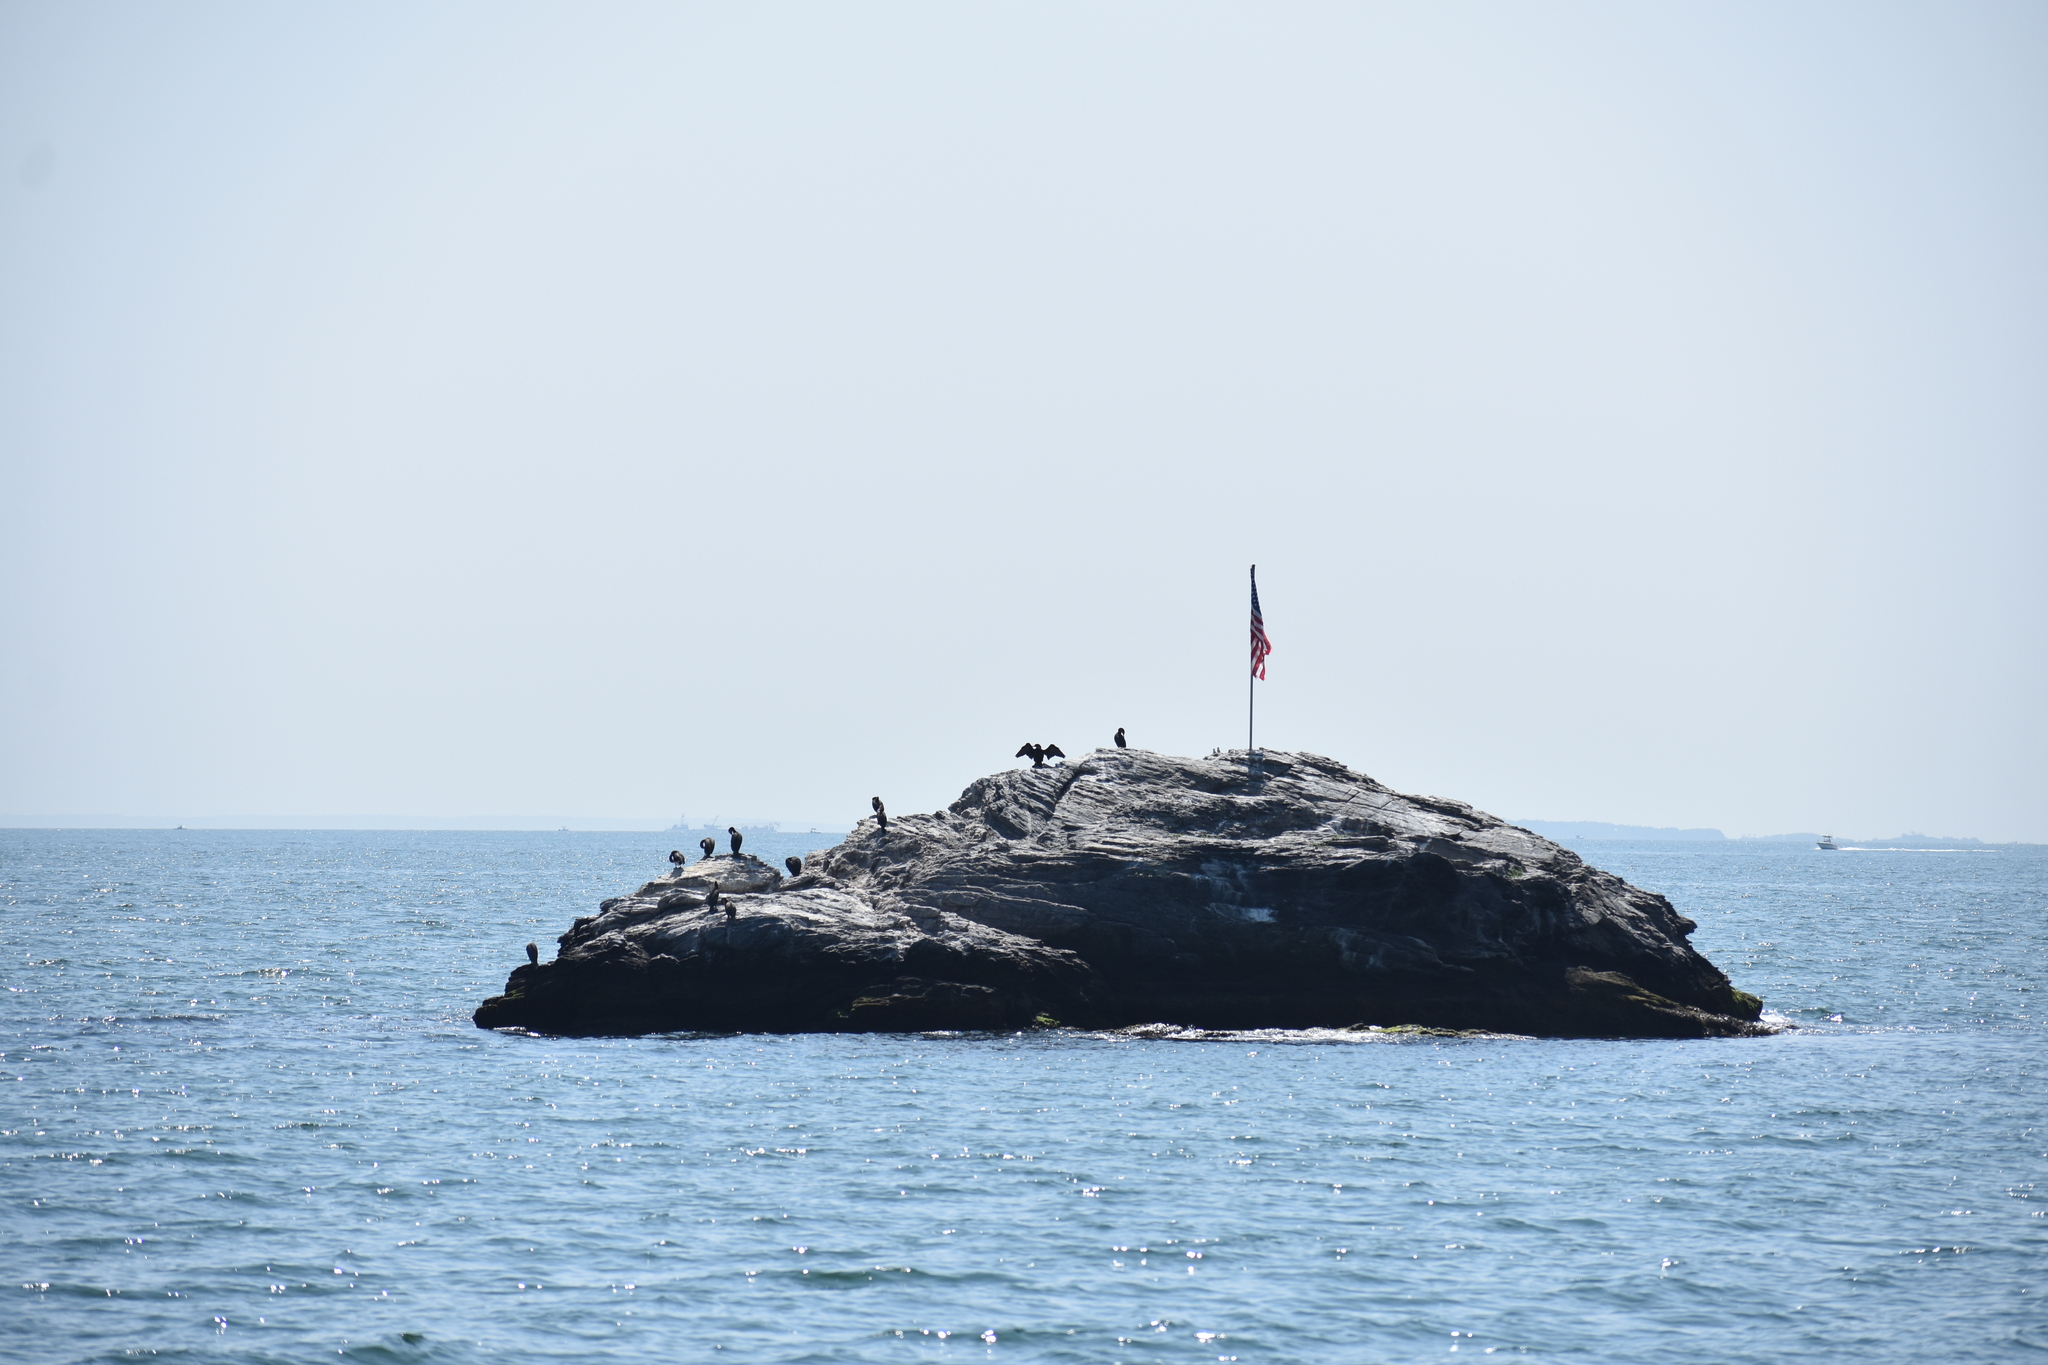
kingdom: Animalia
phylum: Chordata
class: Aves
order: Suliformes
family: Phalacrocoracidae
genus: Phalacrocorax
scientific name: Phalacrocorax auritus
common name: Double-crested cormorant
